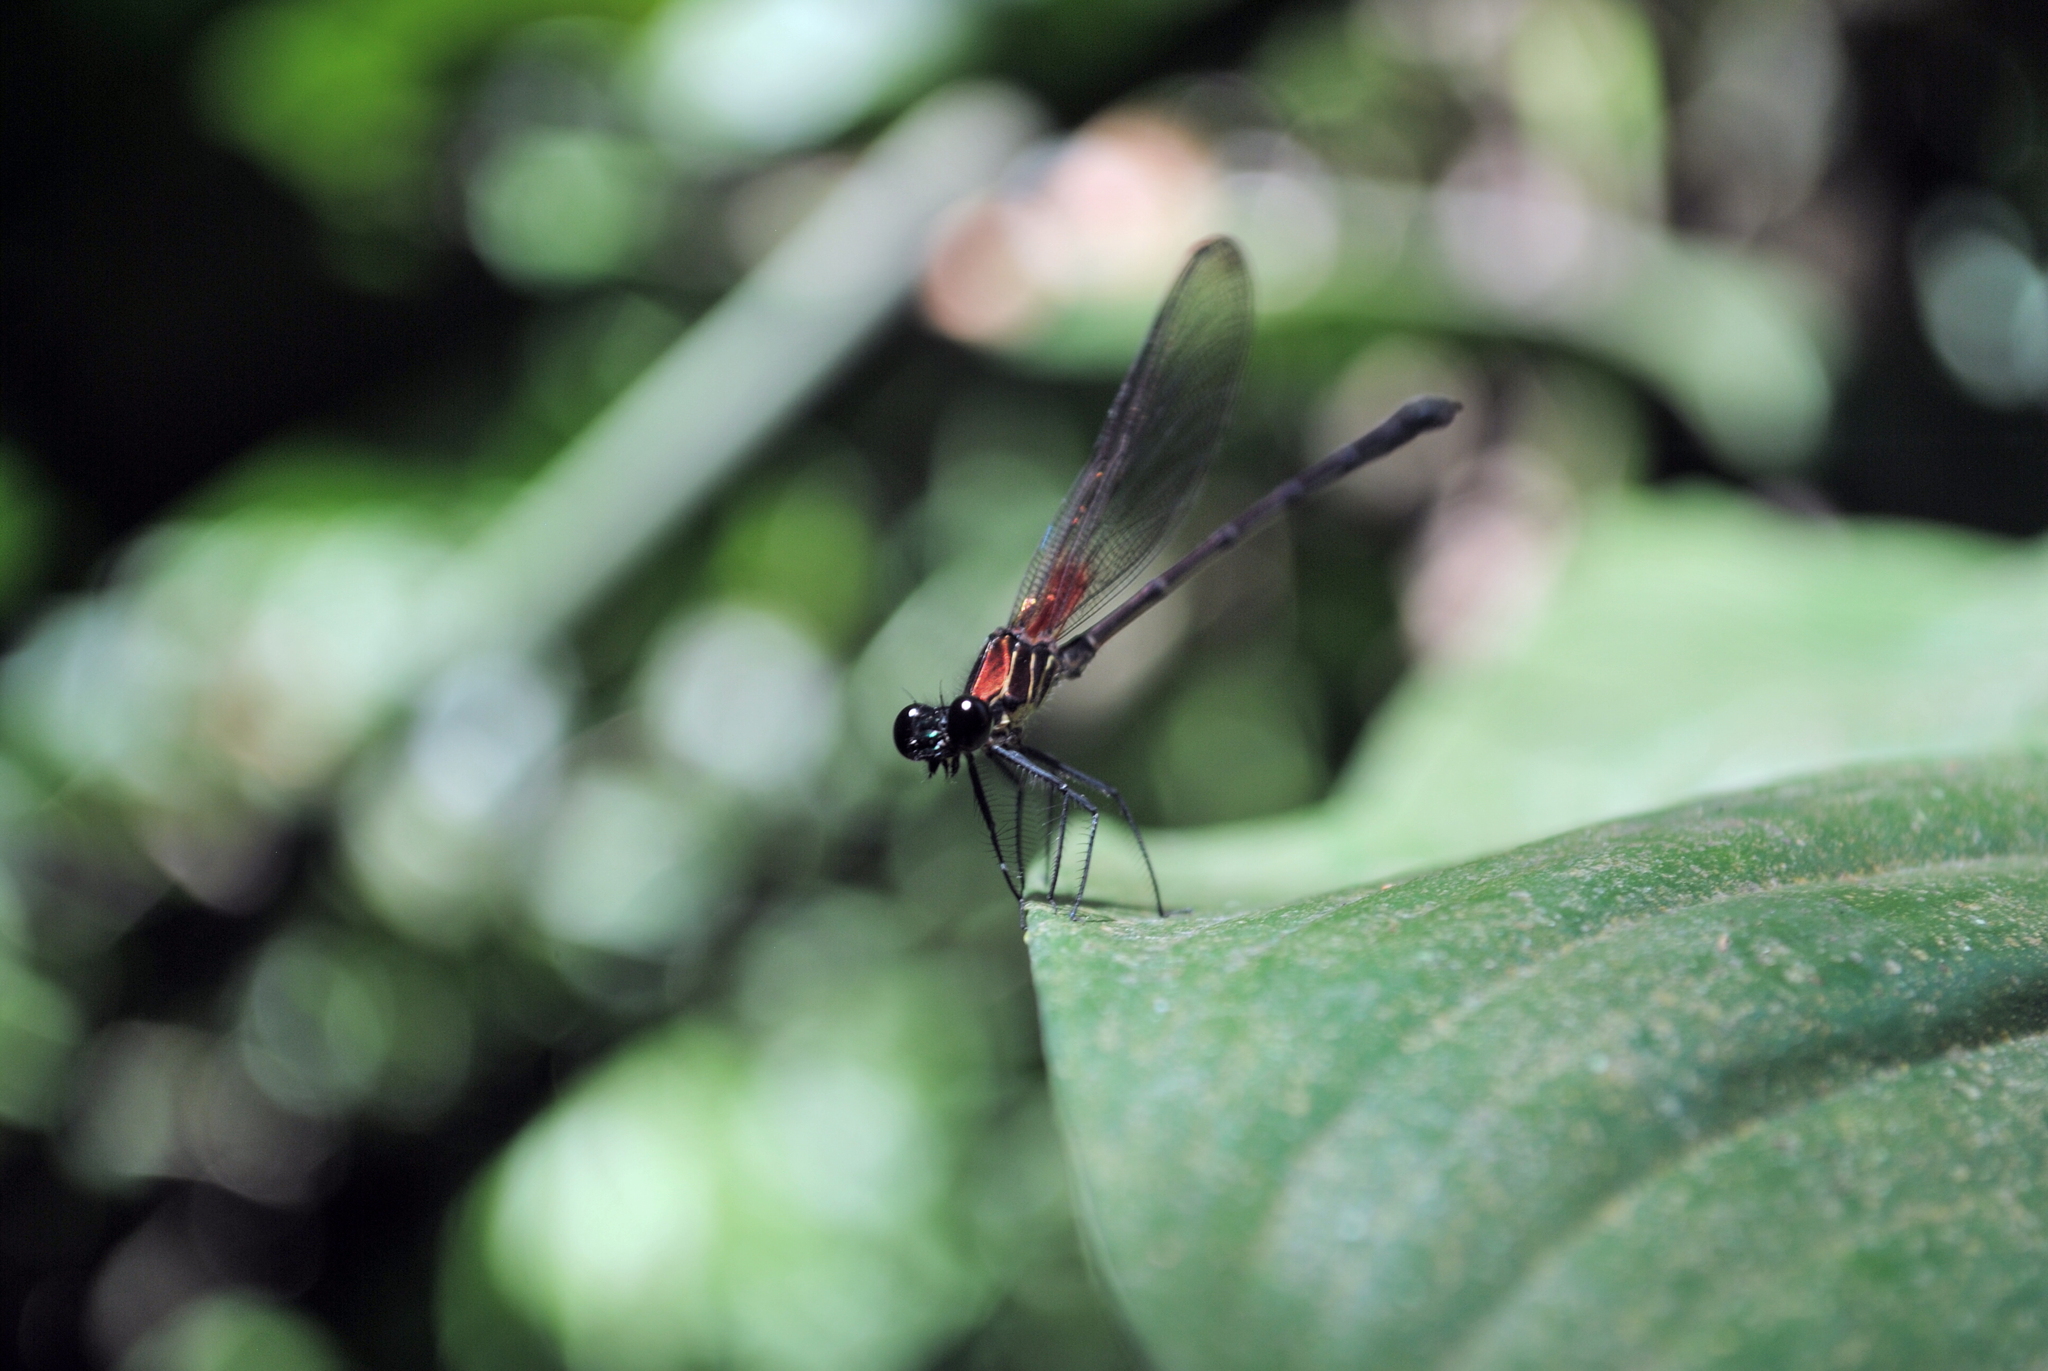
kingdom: Animalia
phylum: Arthropoda
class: Insecta
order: Odonata
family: Calopterygidae
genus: Hetaerina
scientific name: Hetaerina sempronia
